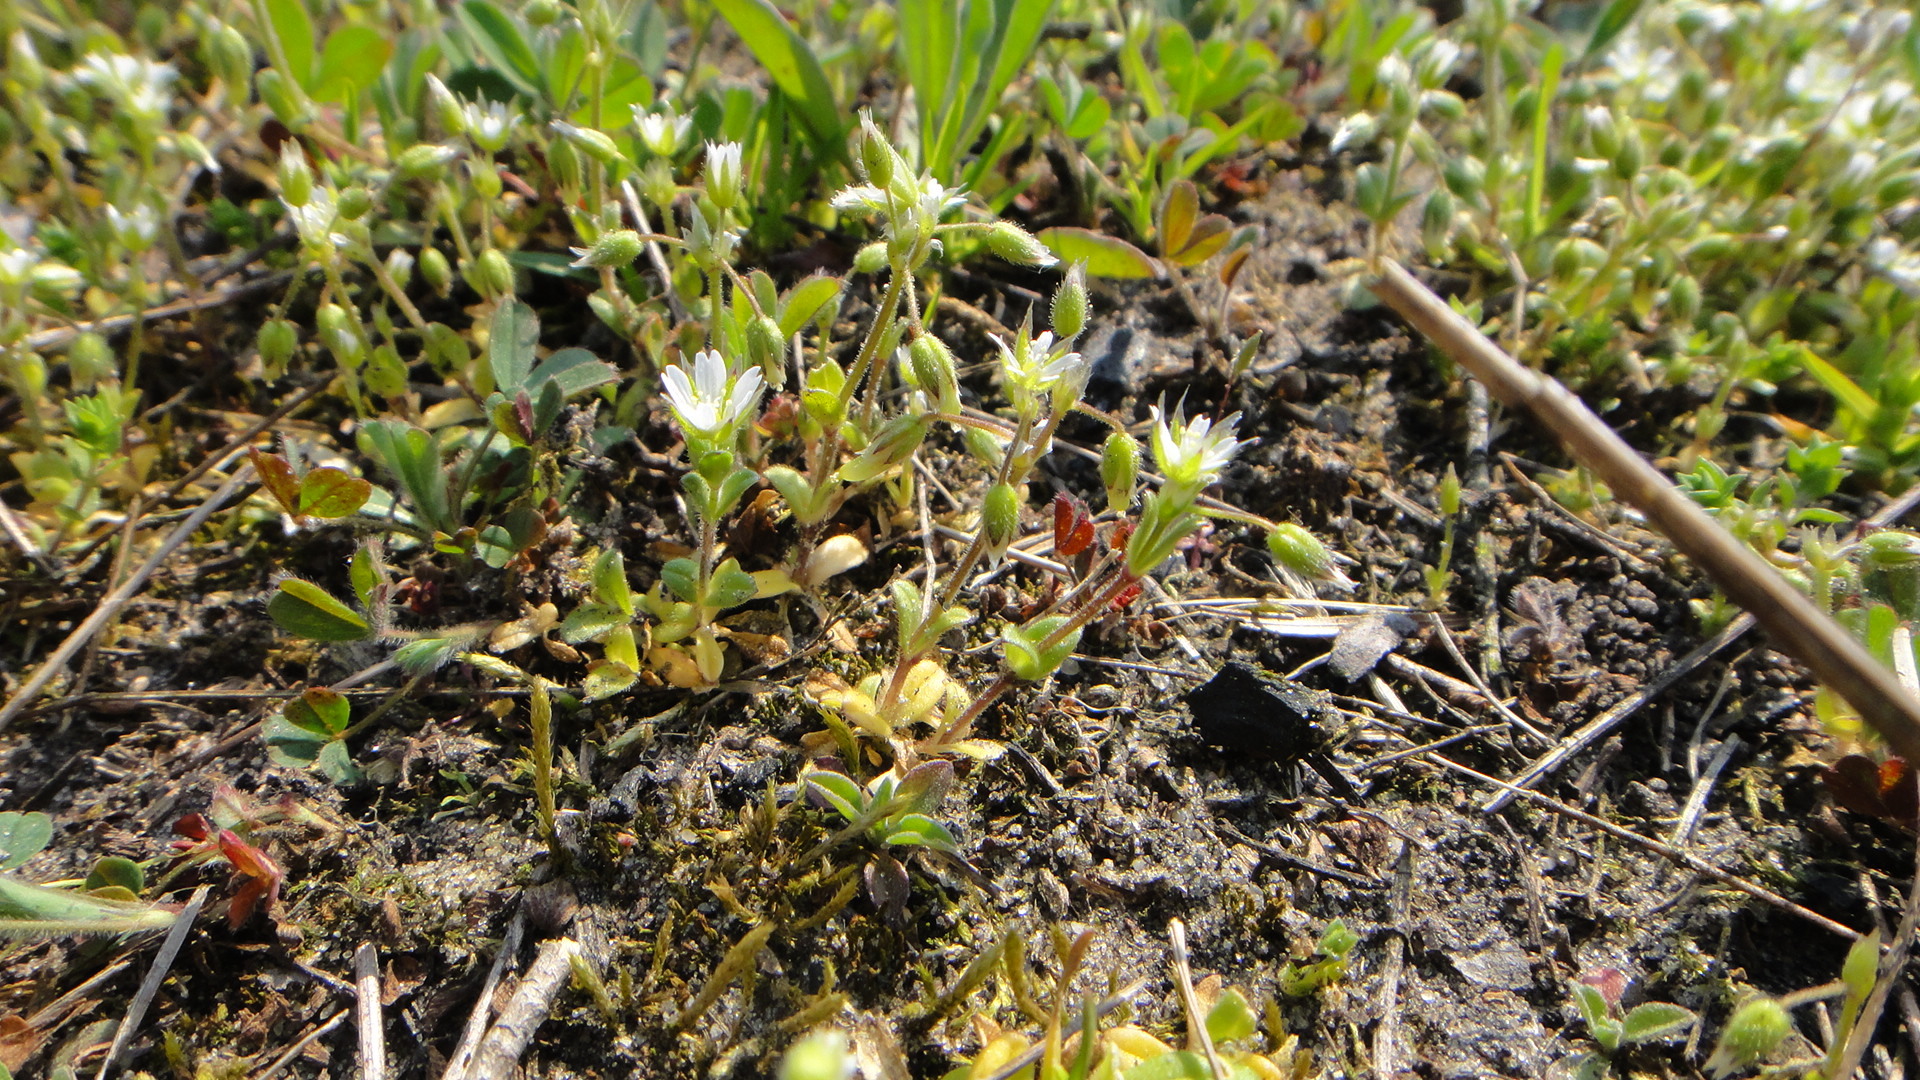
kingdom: Plantae
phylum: Tracheophyta
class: Magnoliopsida
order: Caryophyllales
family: Caryophyllaceae
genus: Cerastium
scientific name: Cerastium semidecandrum
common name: Little mouse-ear
